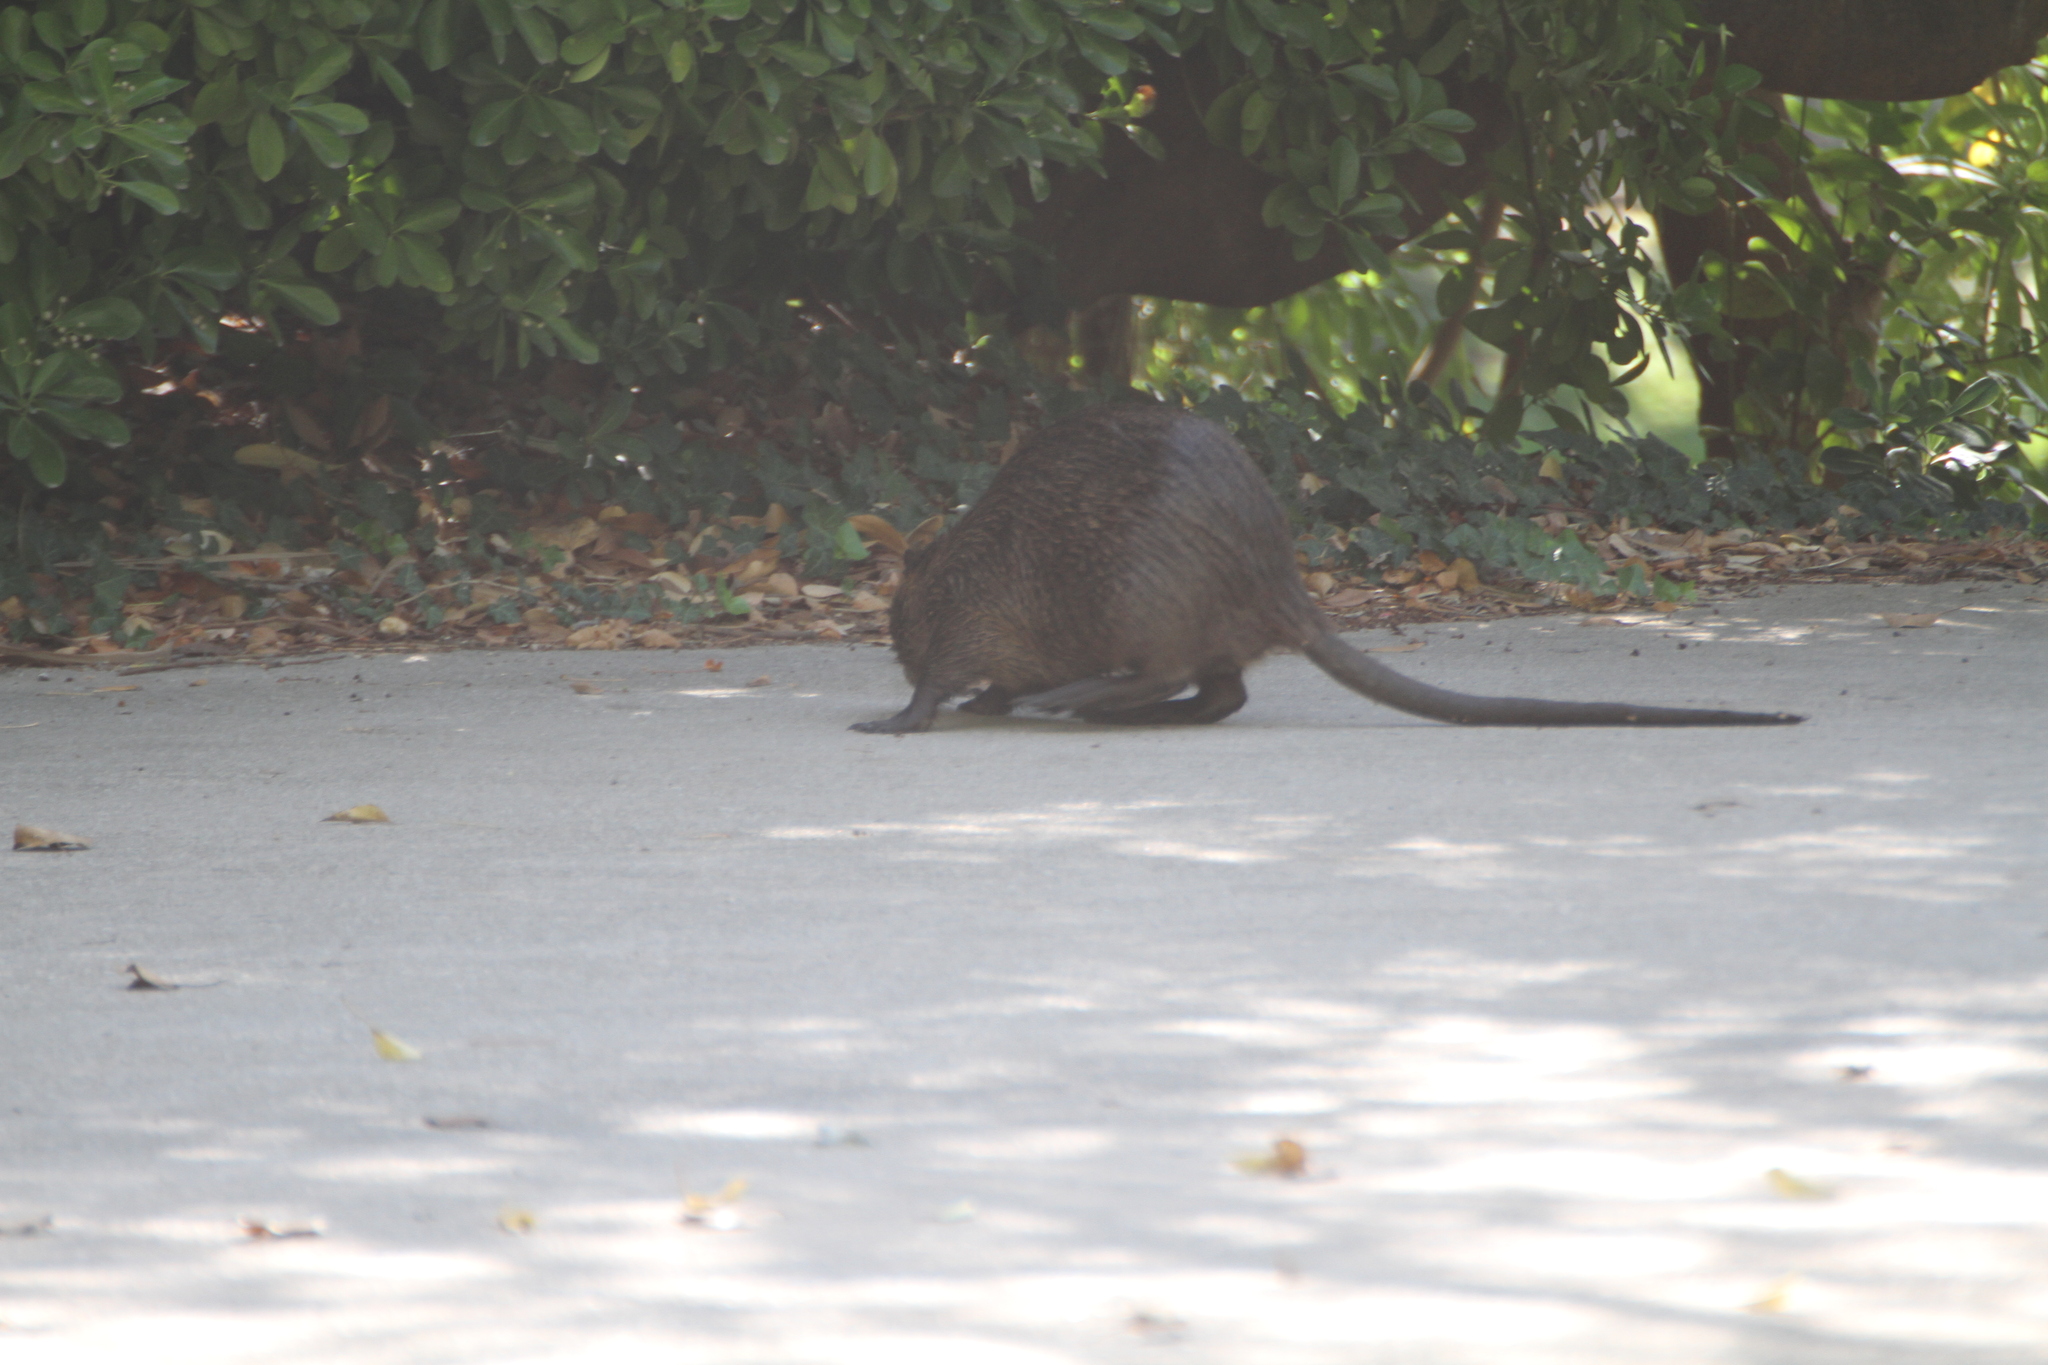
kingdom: Animalia
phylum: Chordata
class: Mammalia
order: Rodentia
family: Myocastoridae
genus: Myocastor
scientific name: Myocastor coypus
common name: Coypu
